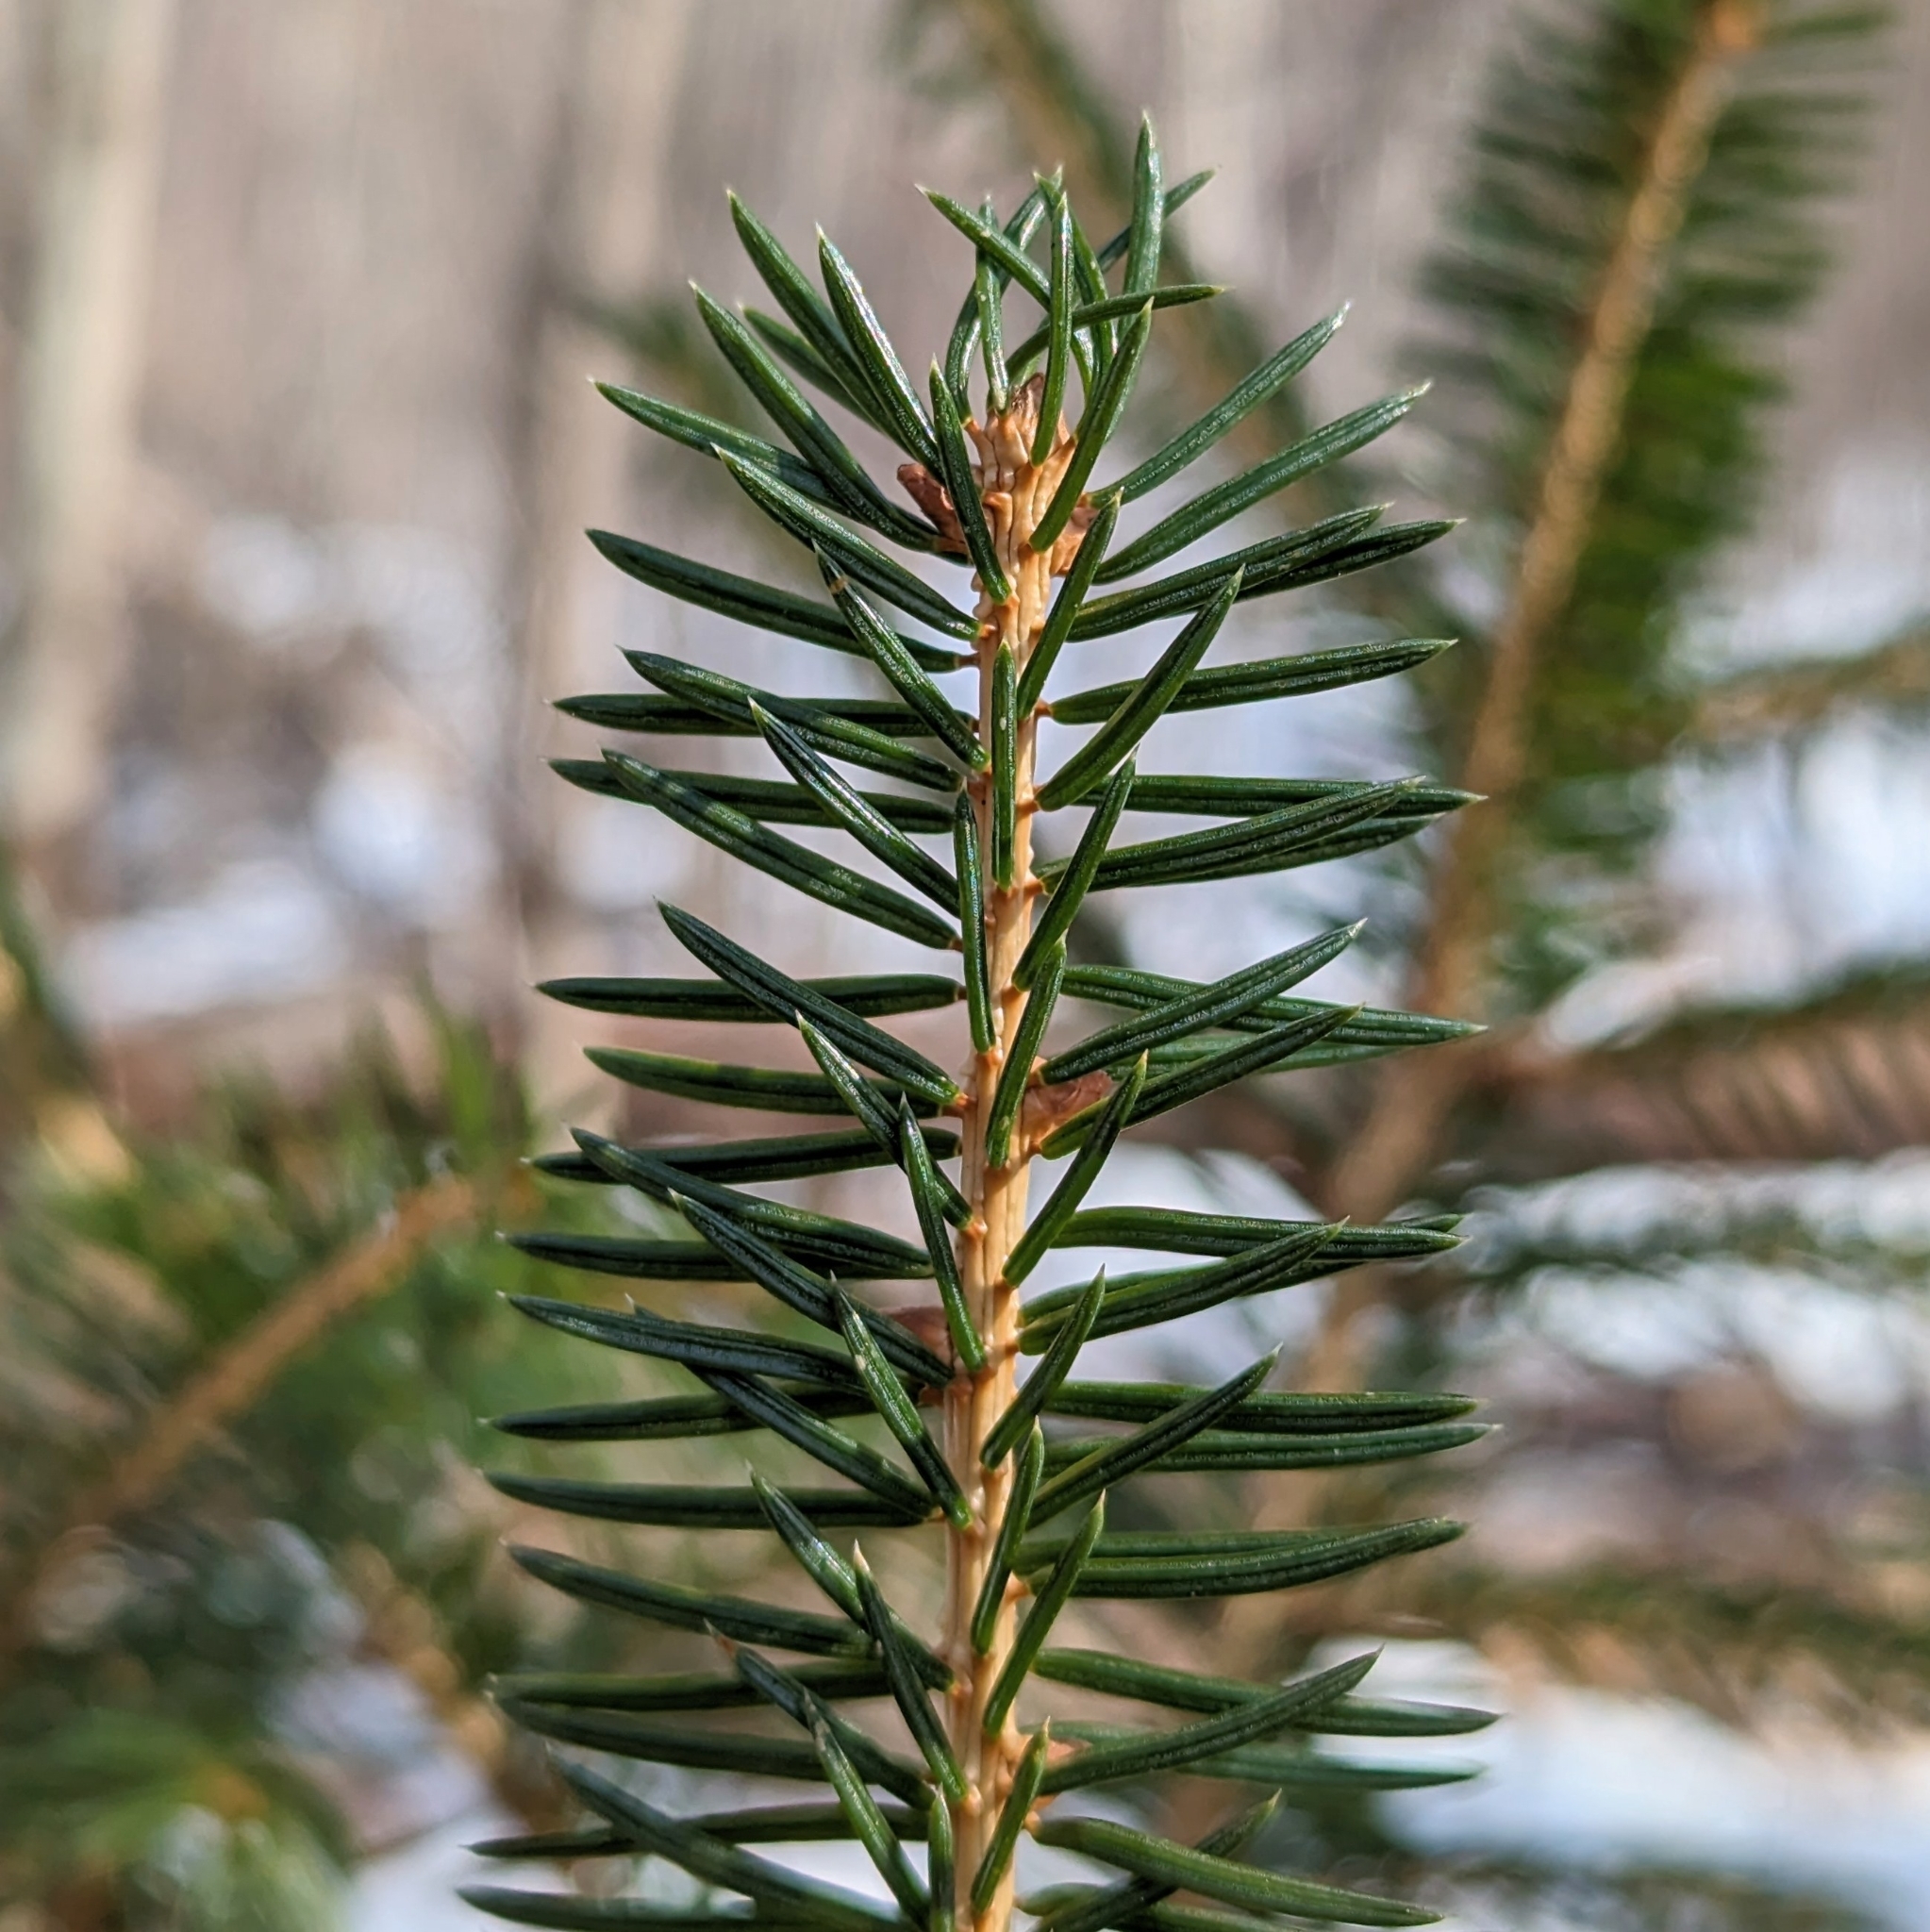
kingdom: Plantae
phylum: Tracheophyta
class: Pinopsida
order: Pinales
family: Pinaceae
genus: Picea
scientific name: Picea glauca
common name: White spruce
